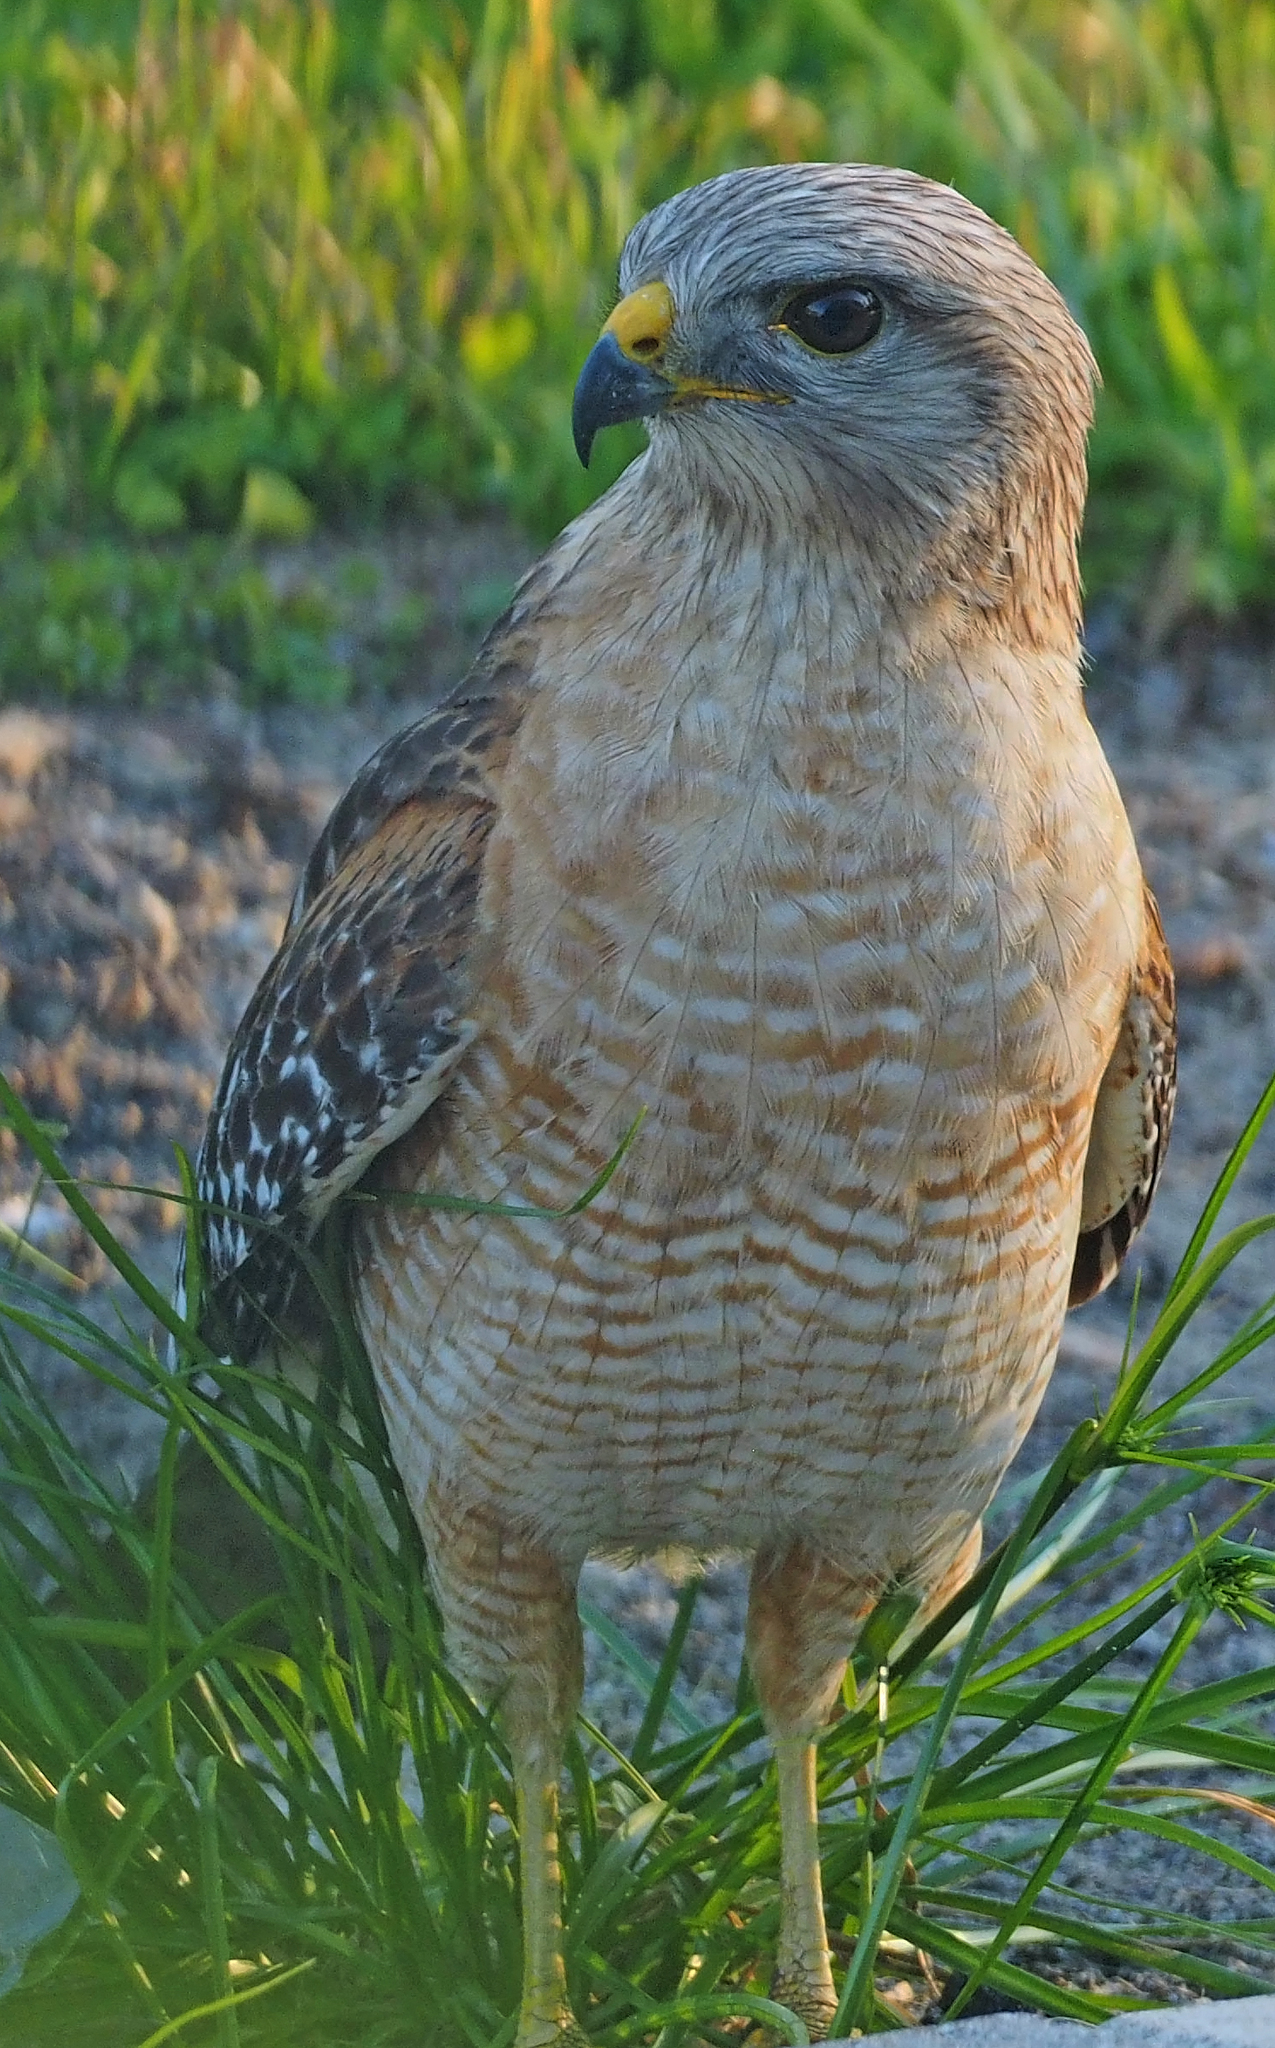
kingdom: Animalia
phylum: Chordata
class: Aves
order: Accipitriformes
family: Accipitridae
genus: Buteo
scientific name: Buteo lineatus
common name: Red-shouldered hawk
